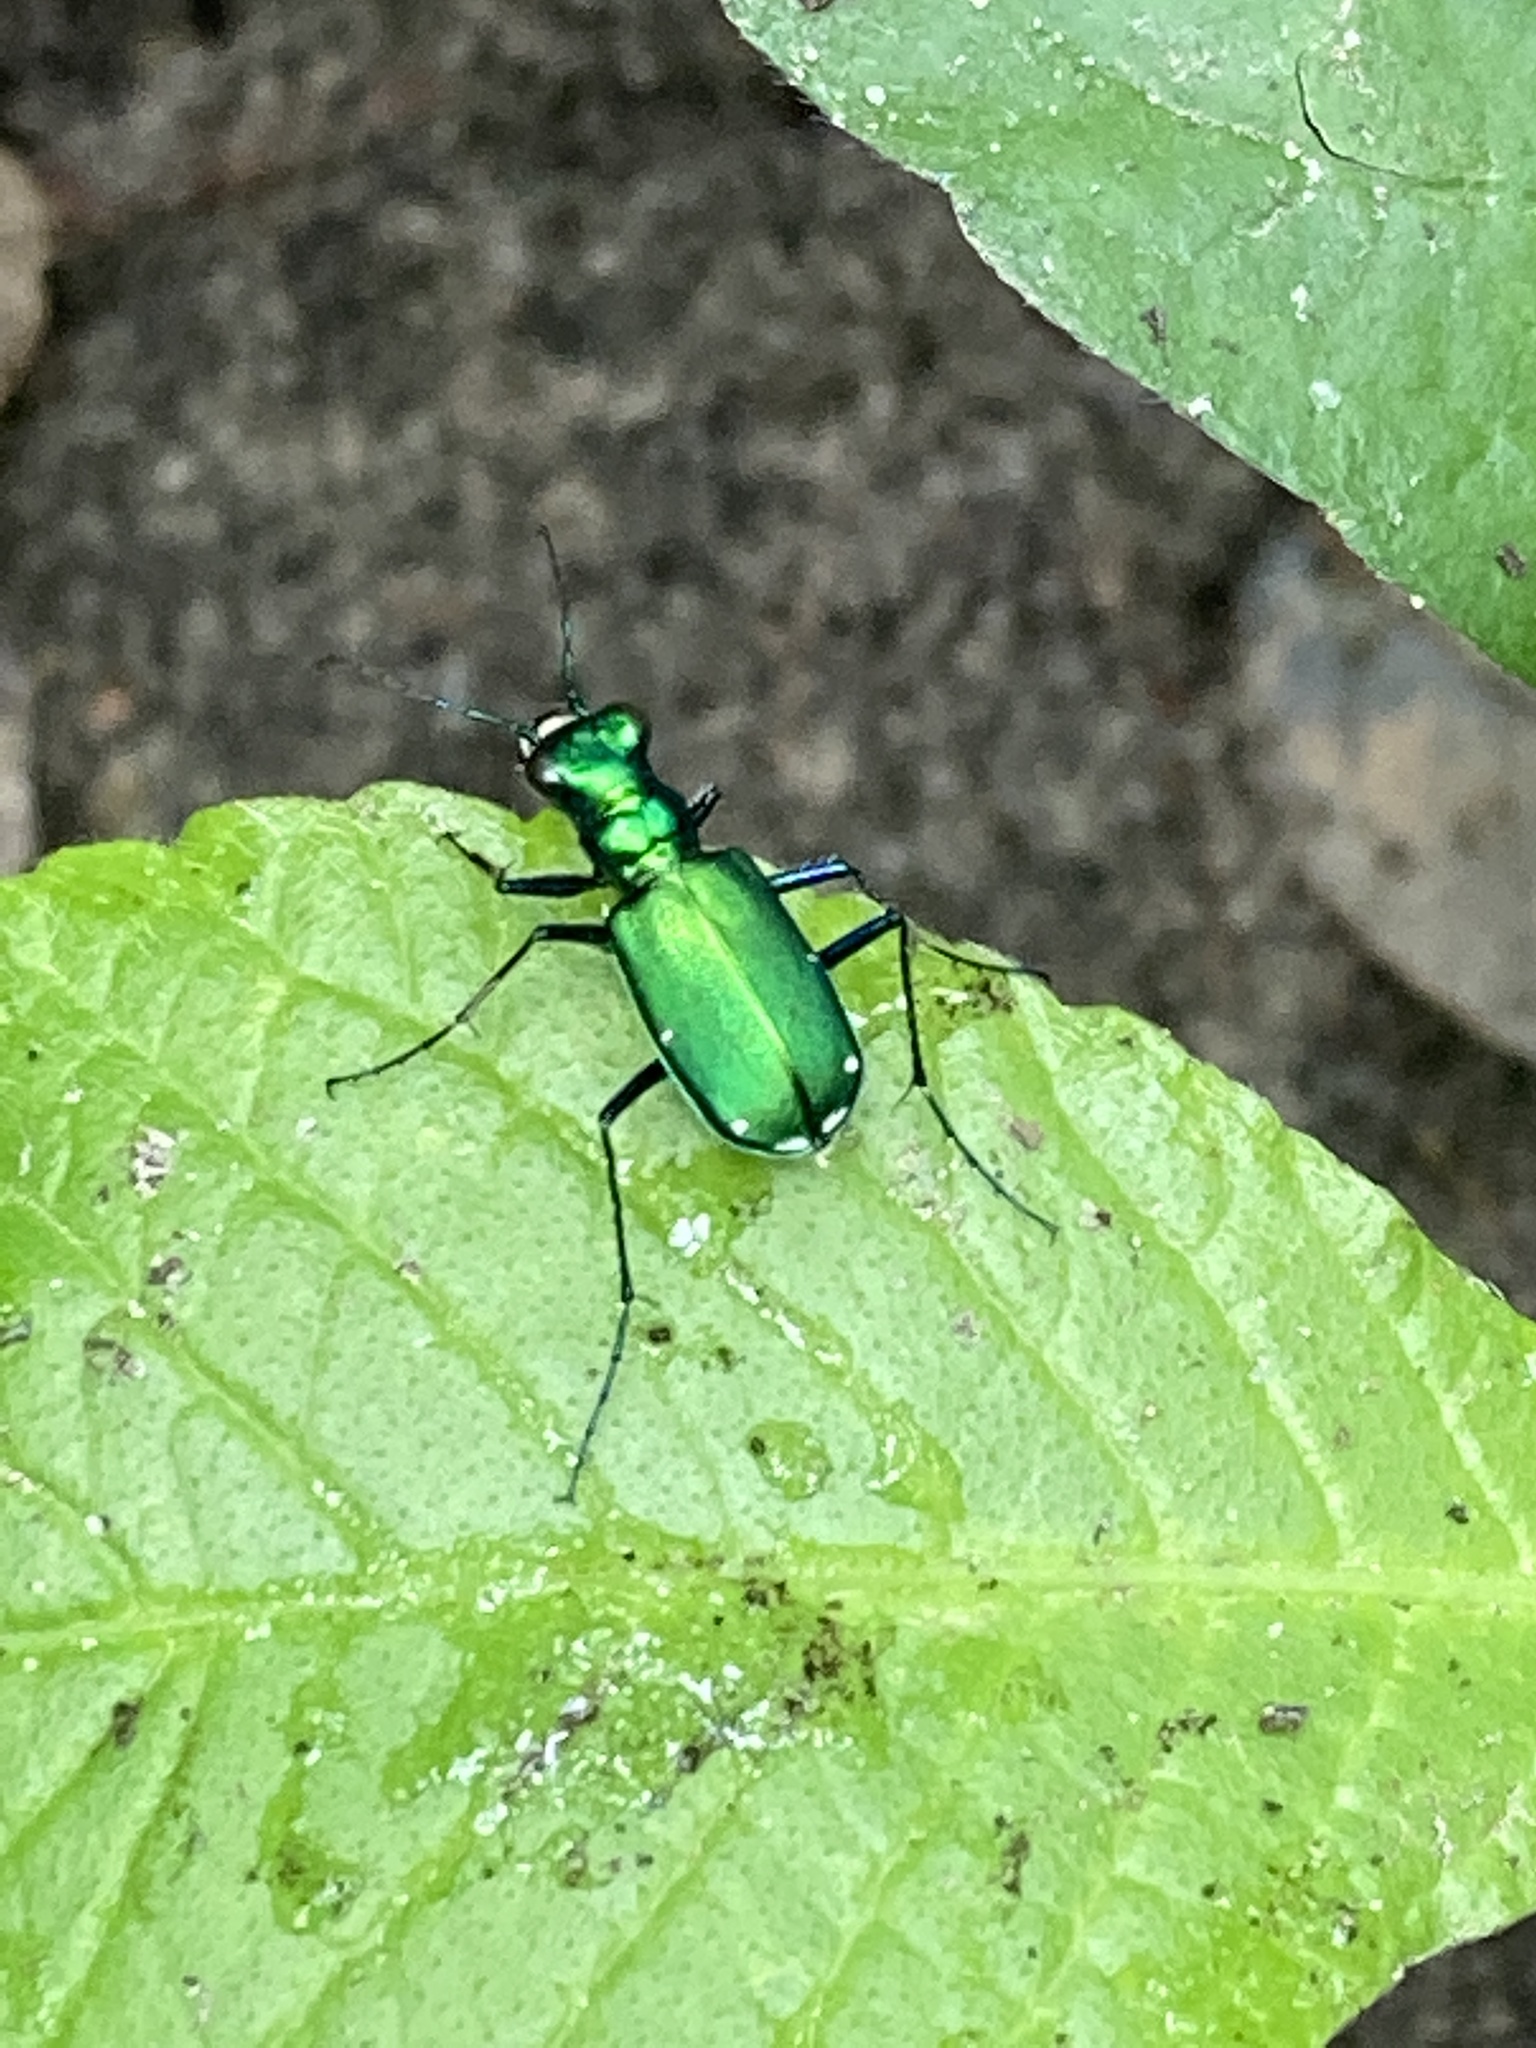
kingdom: Animalia
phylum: Arthropoda
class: Insecta
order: Coleoptera
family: Carabidae
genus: Cicindela
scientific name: Cicindela sexguttata
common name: Six-spotted tiger beetle
